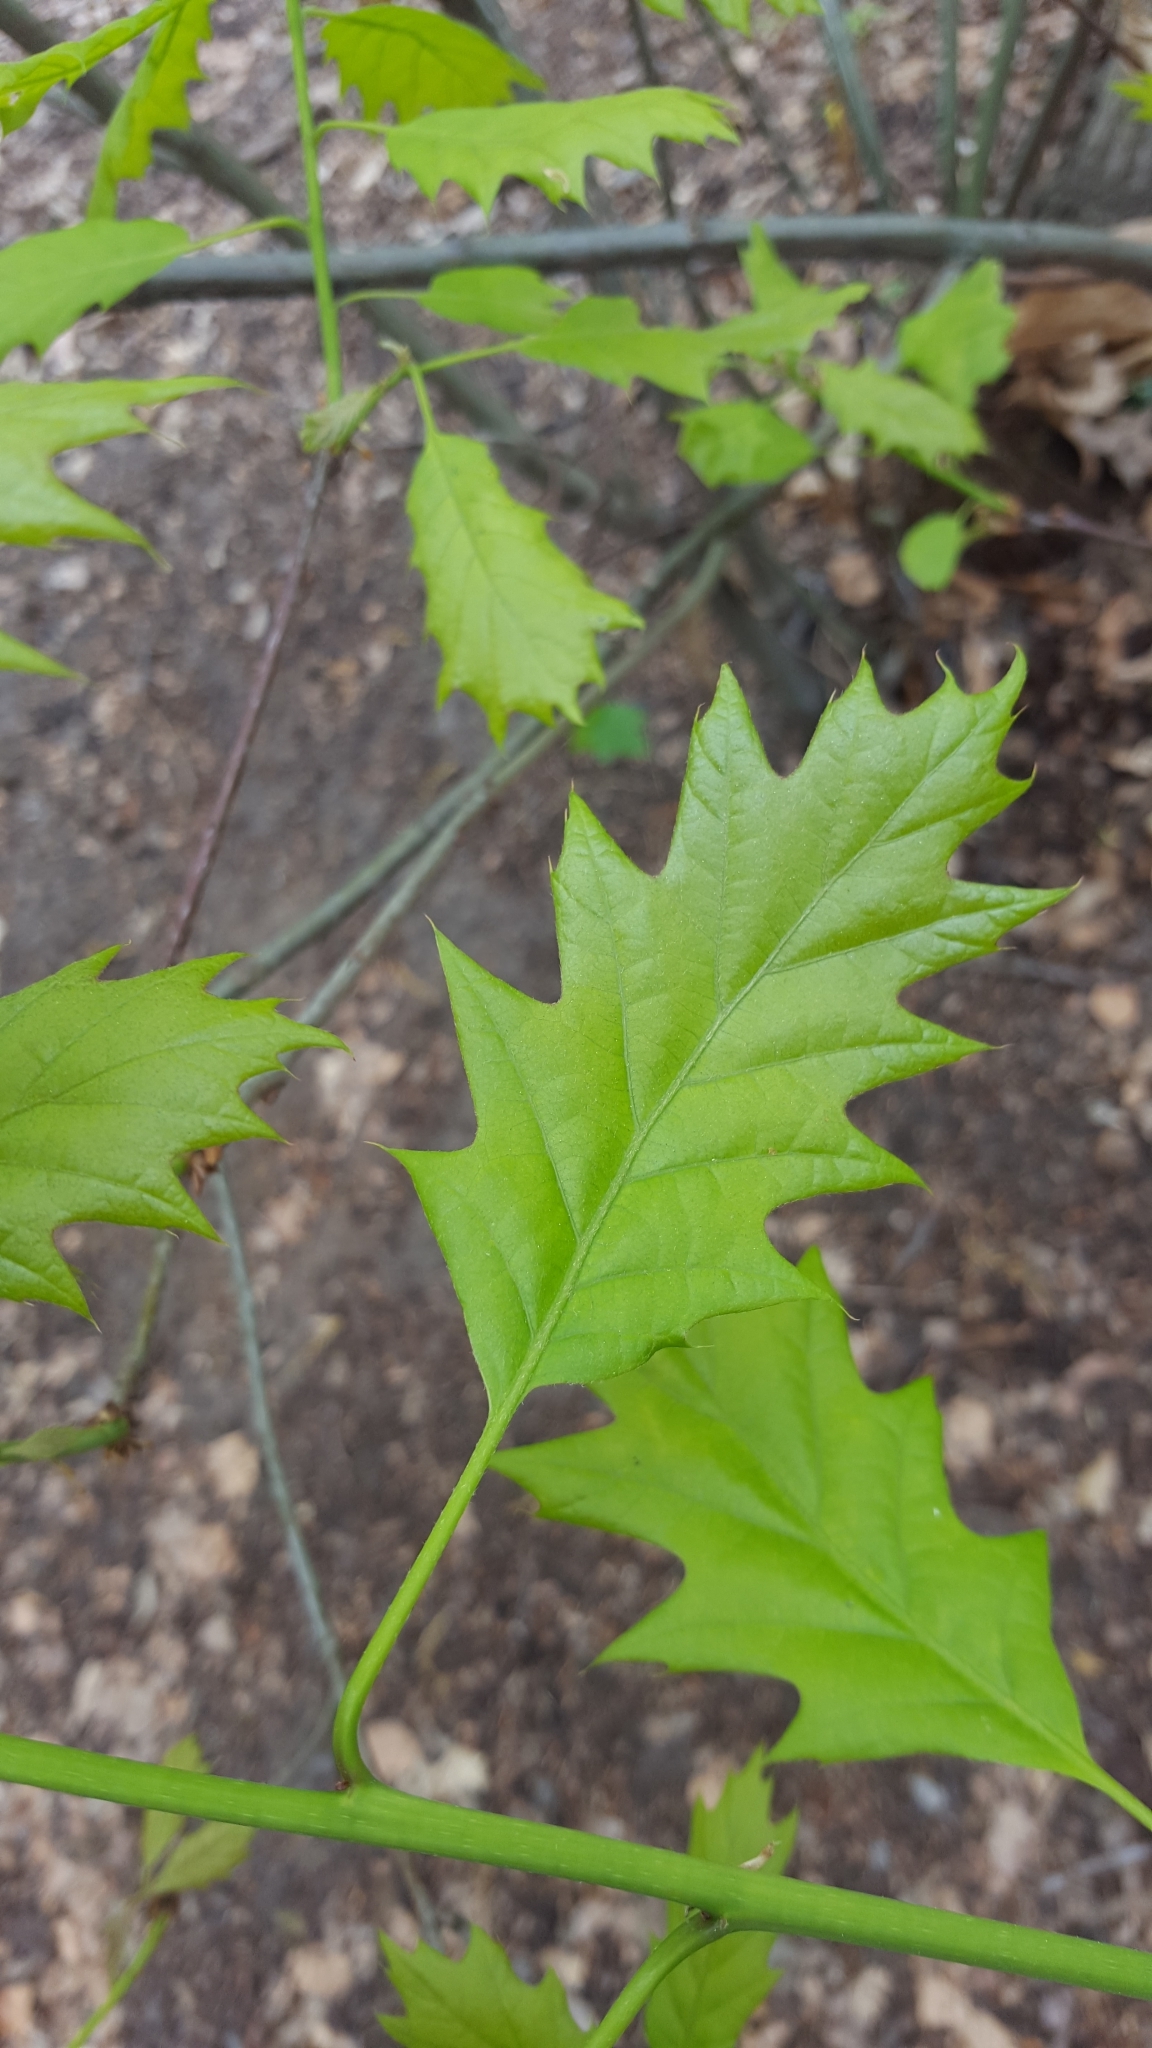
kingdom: Plantae
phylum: Tracheophyta
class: Magnoliopsida
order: Fagales
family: Fagaceae
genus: Quercus
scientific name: Quercus rubra
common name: Red oak
